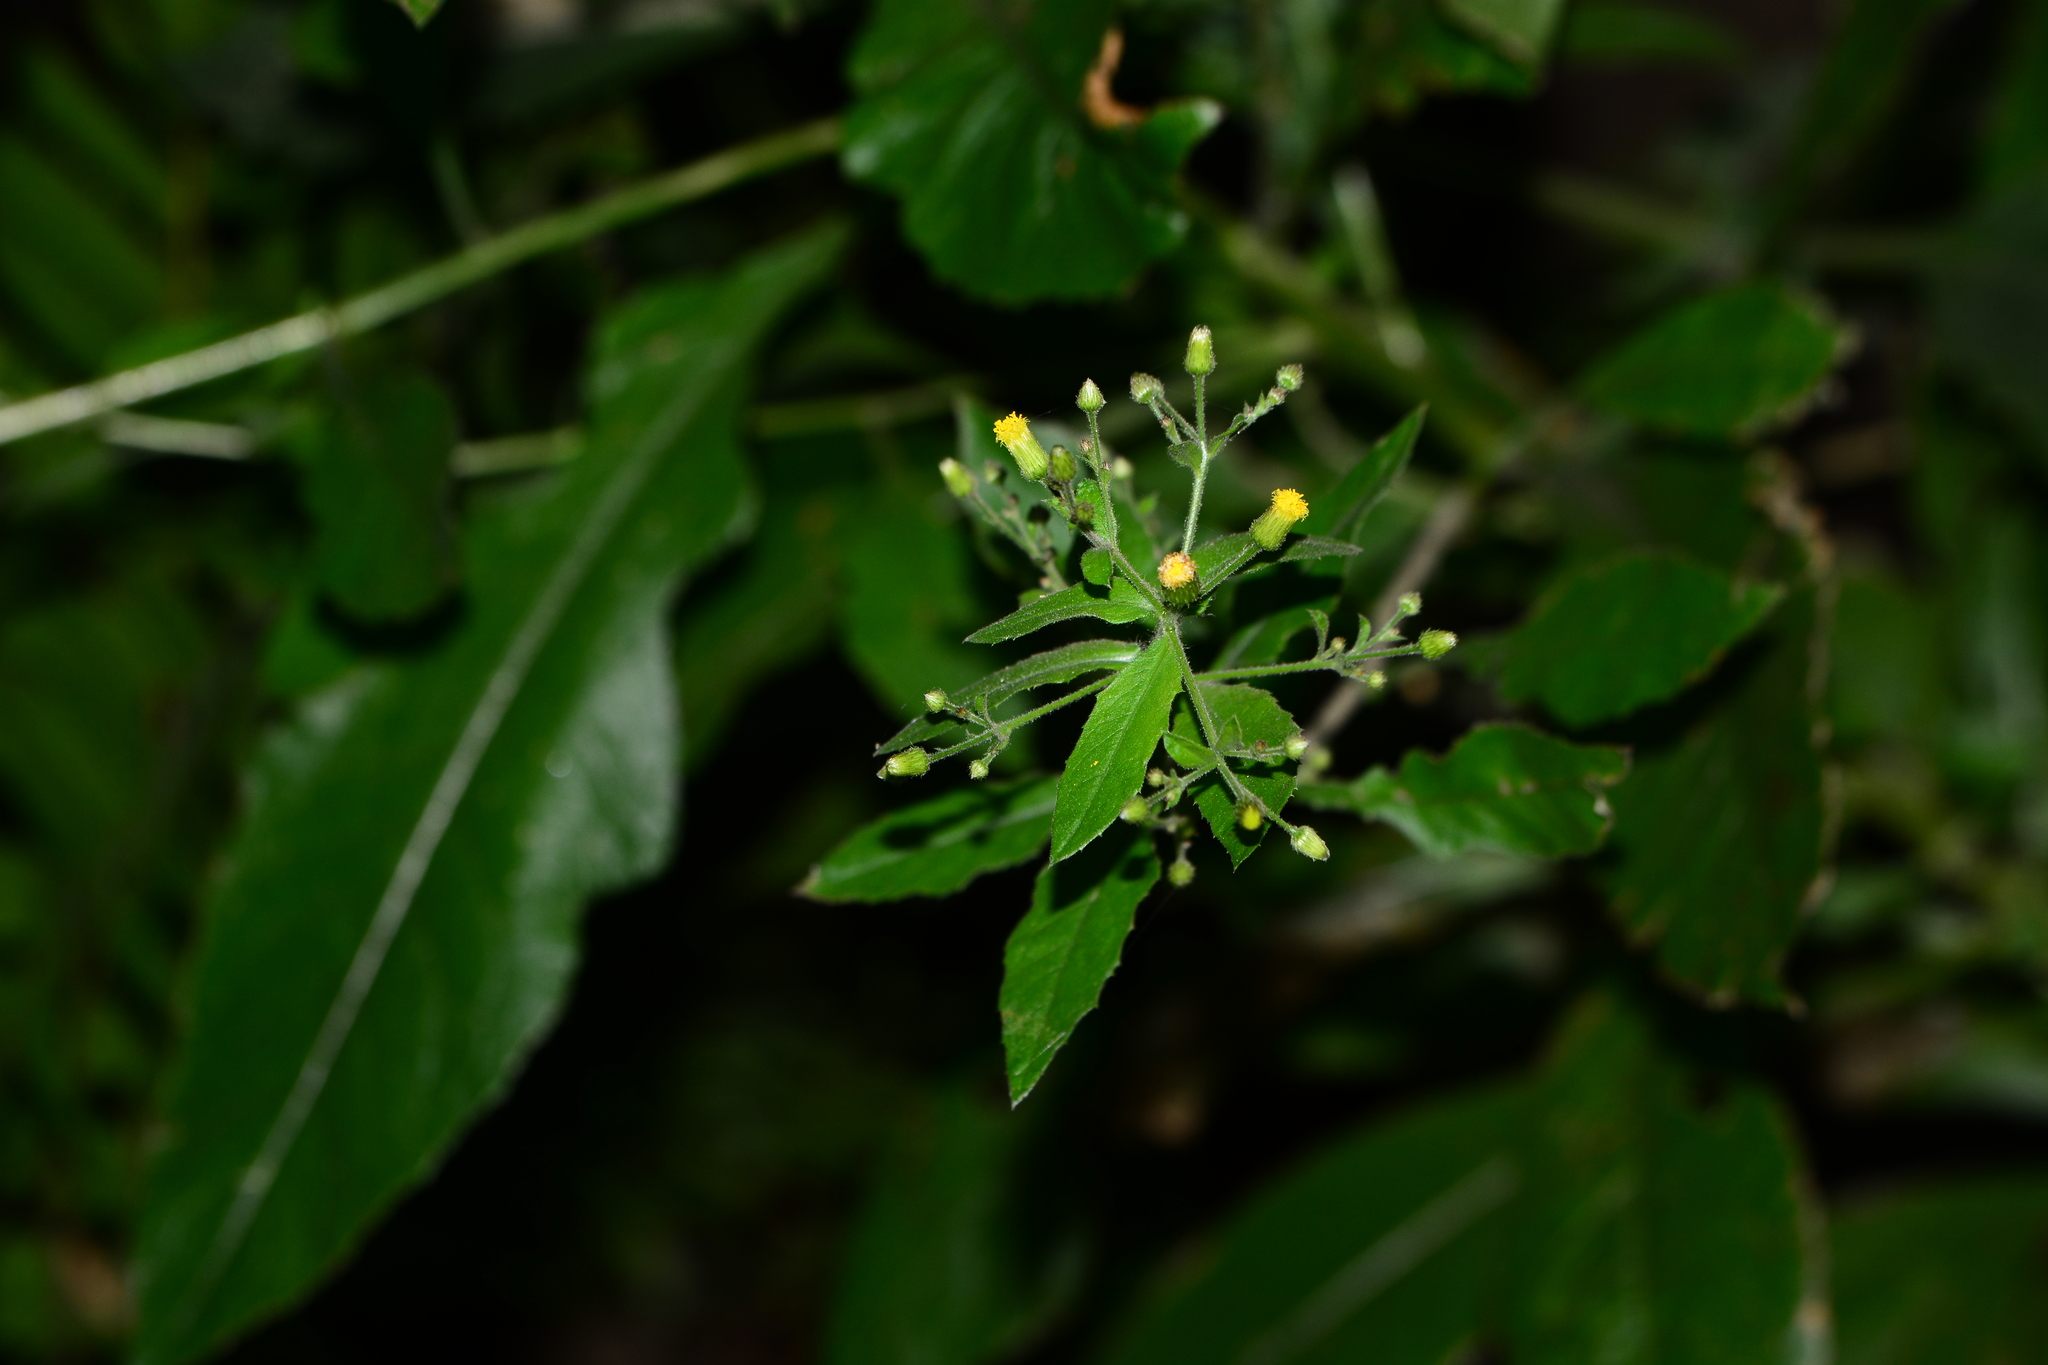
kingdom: Plantae
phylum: Tracheophyta
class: Magnoliopsida
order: Asterales
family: Asteraceae
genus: Pluchea
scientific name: Pluchea paniculata
